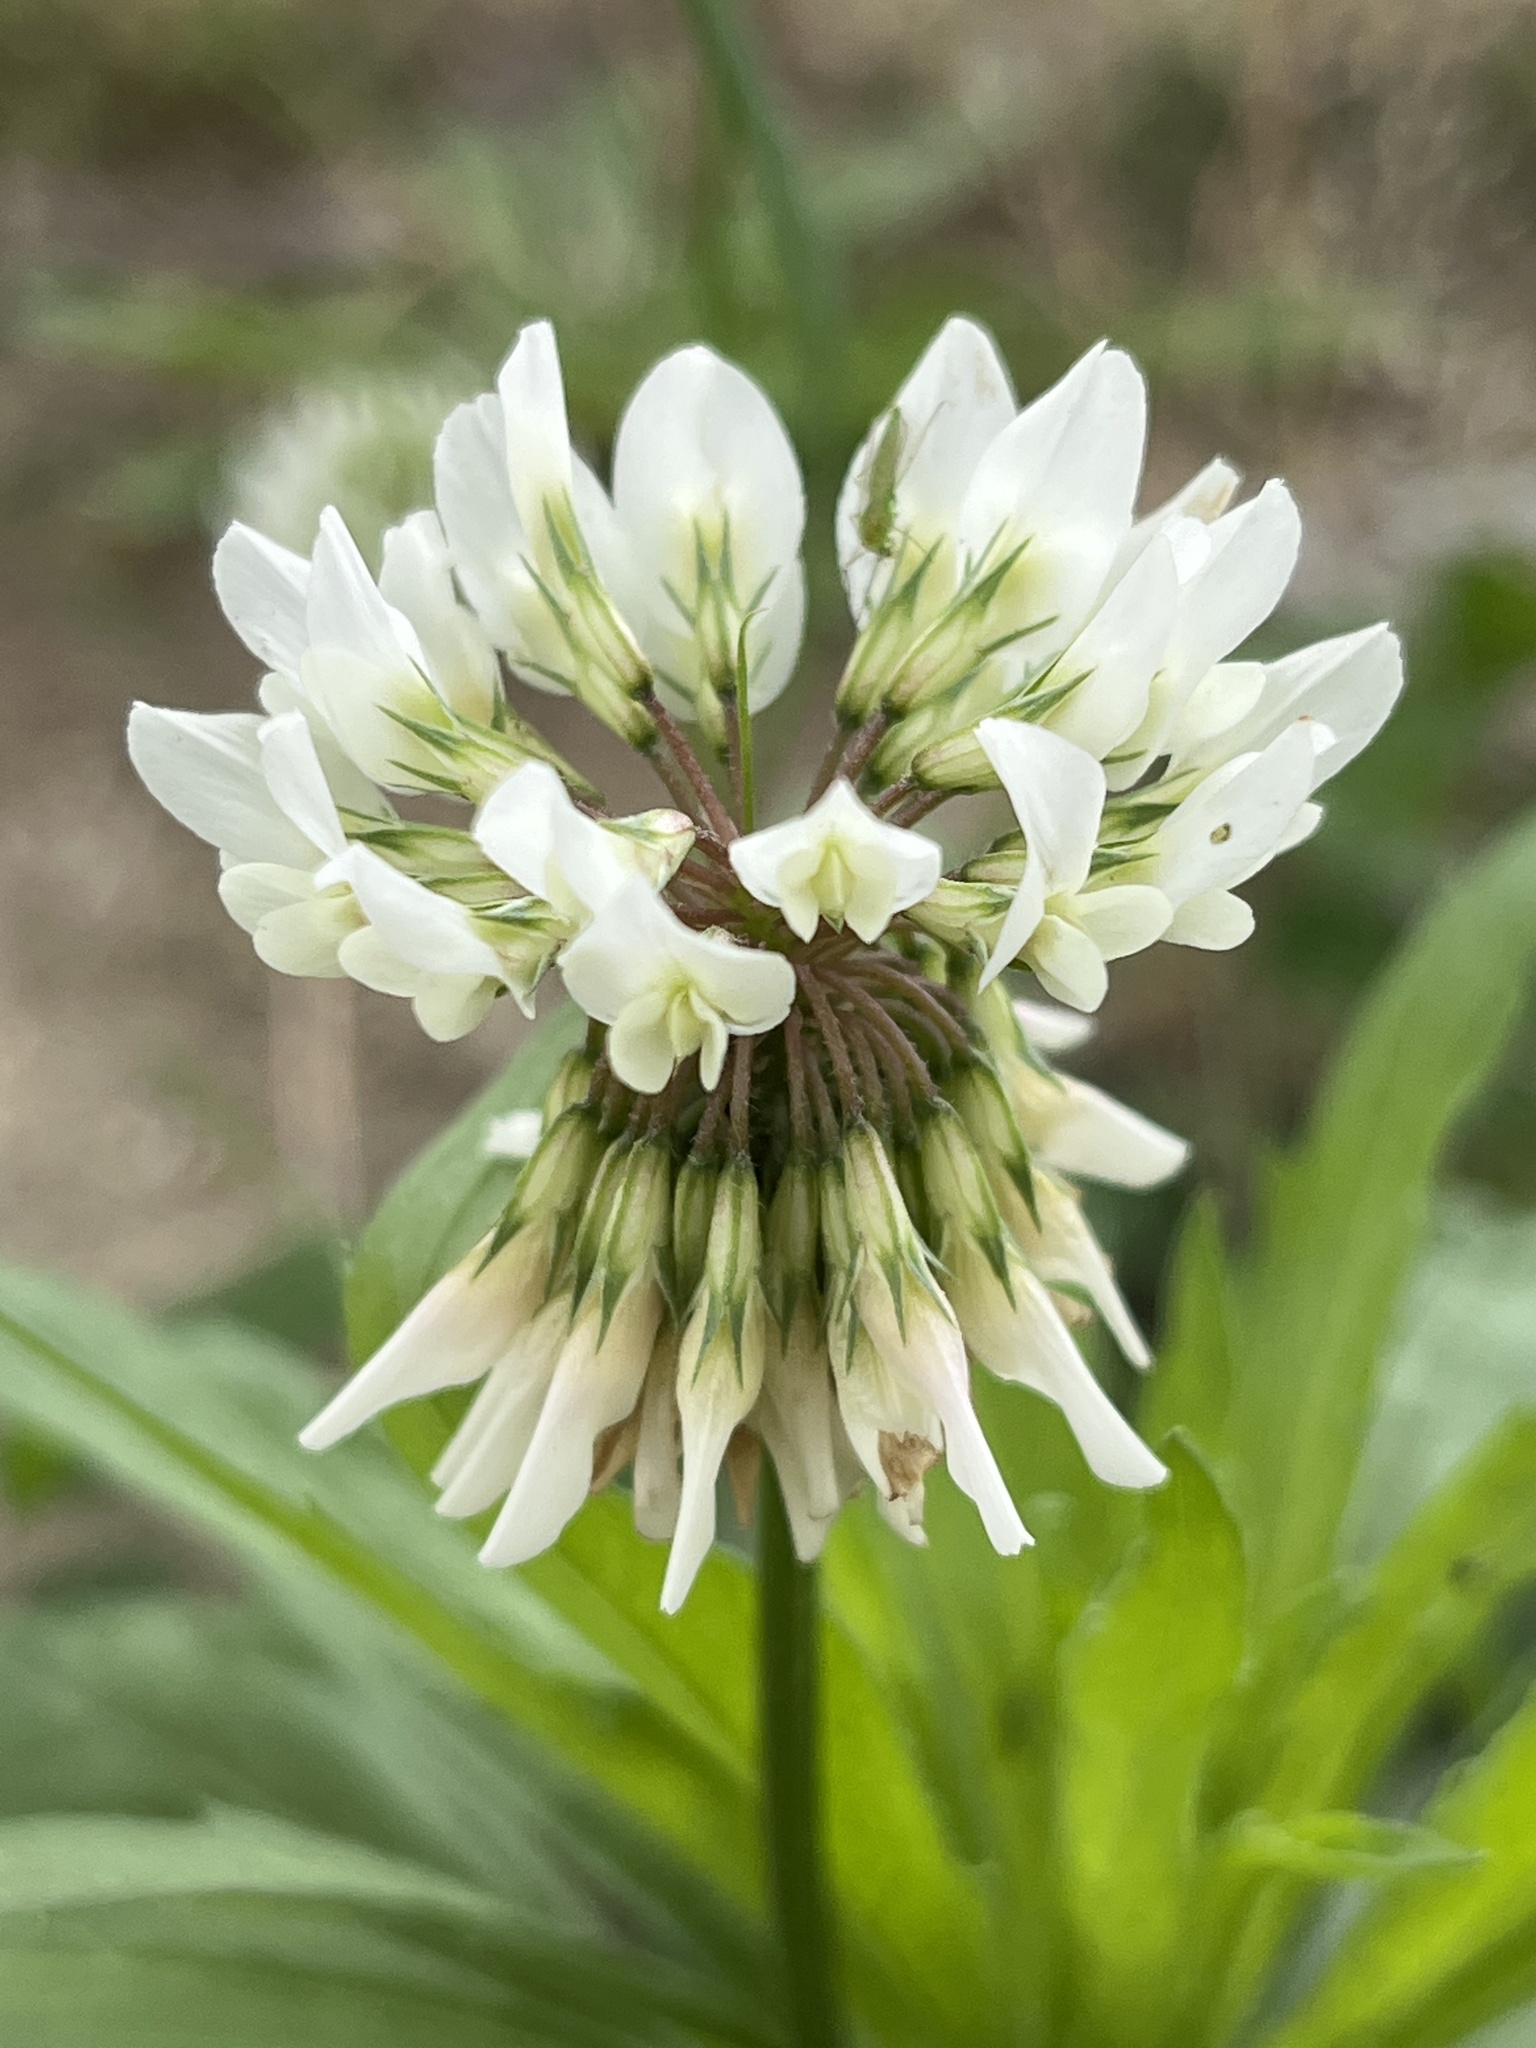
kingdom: Plantae
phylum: Tracheophyta
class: Magnoliopsida
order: Fabales
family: Fabaceae
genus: Trifolium
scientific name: Trifolium repens
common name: White clover
